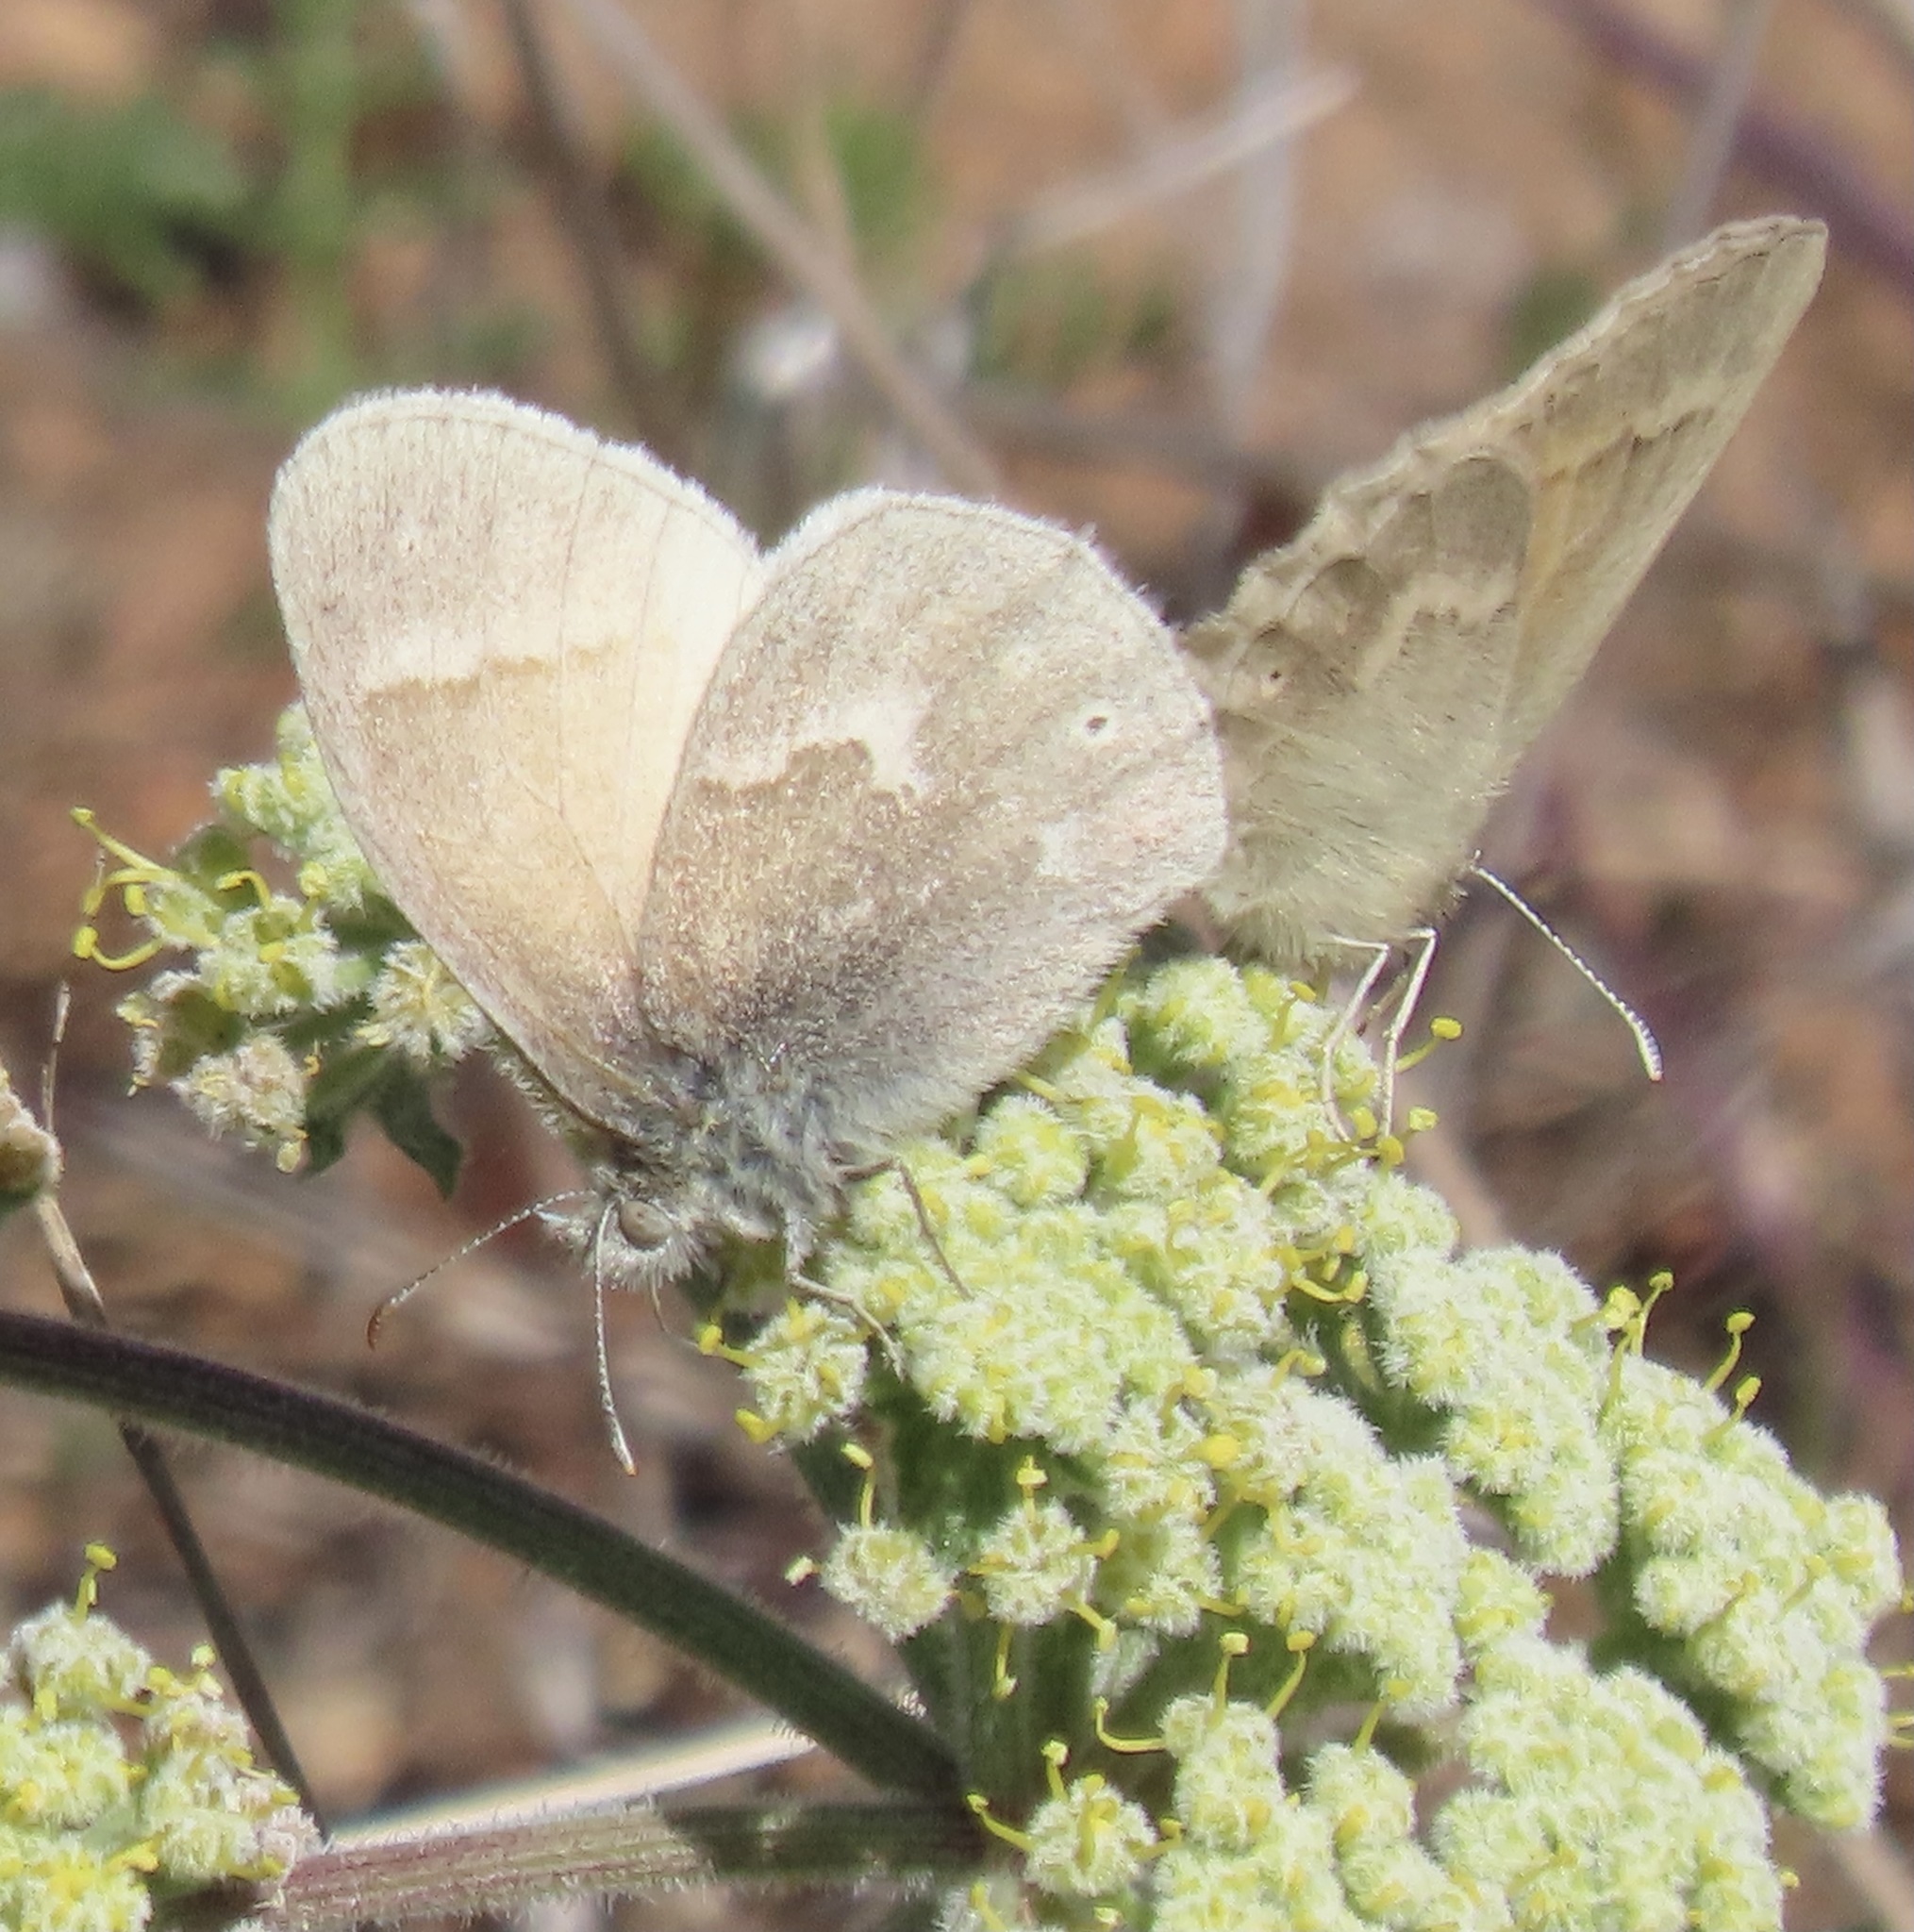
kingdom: Animalia
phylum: Arthropoda
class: Insecta
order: Lepidoptera
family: Nymphalidae
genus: Coenonympha
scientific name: Coenonympha california
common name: Common ringlet
